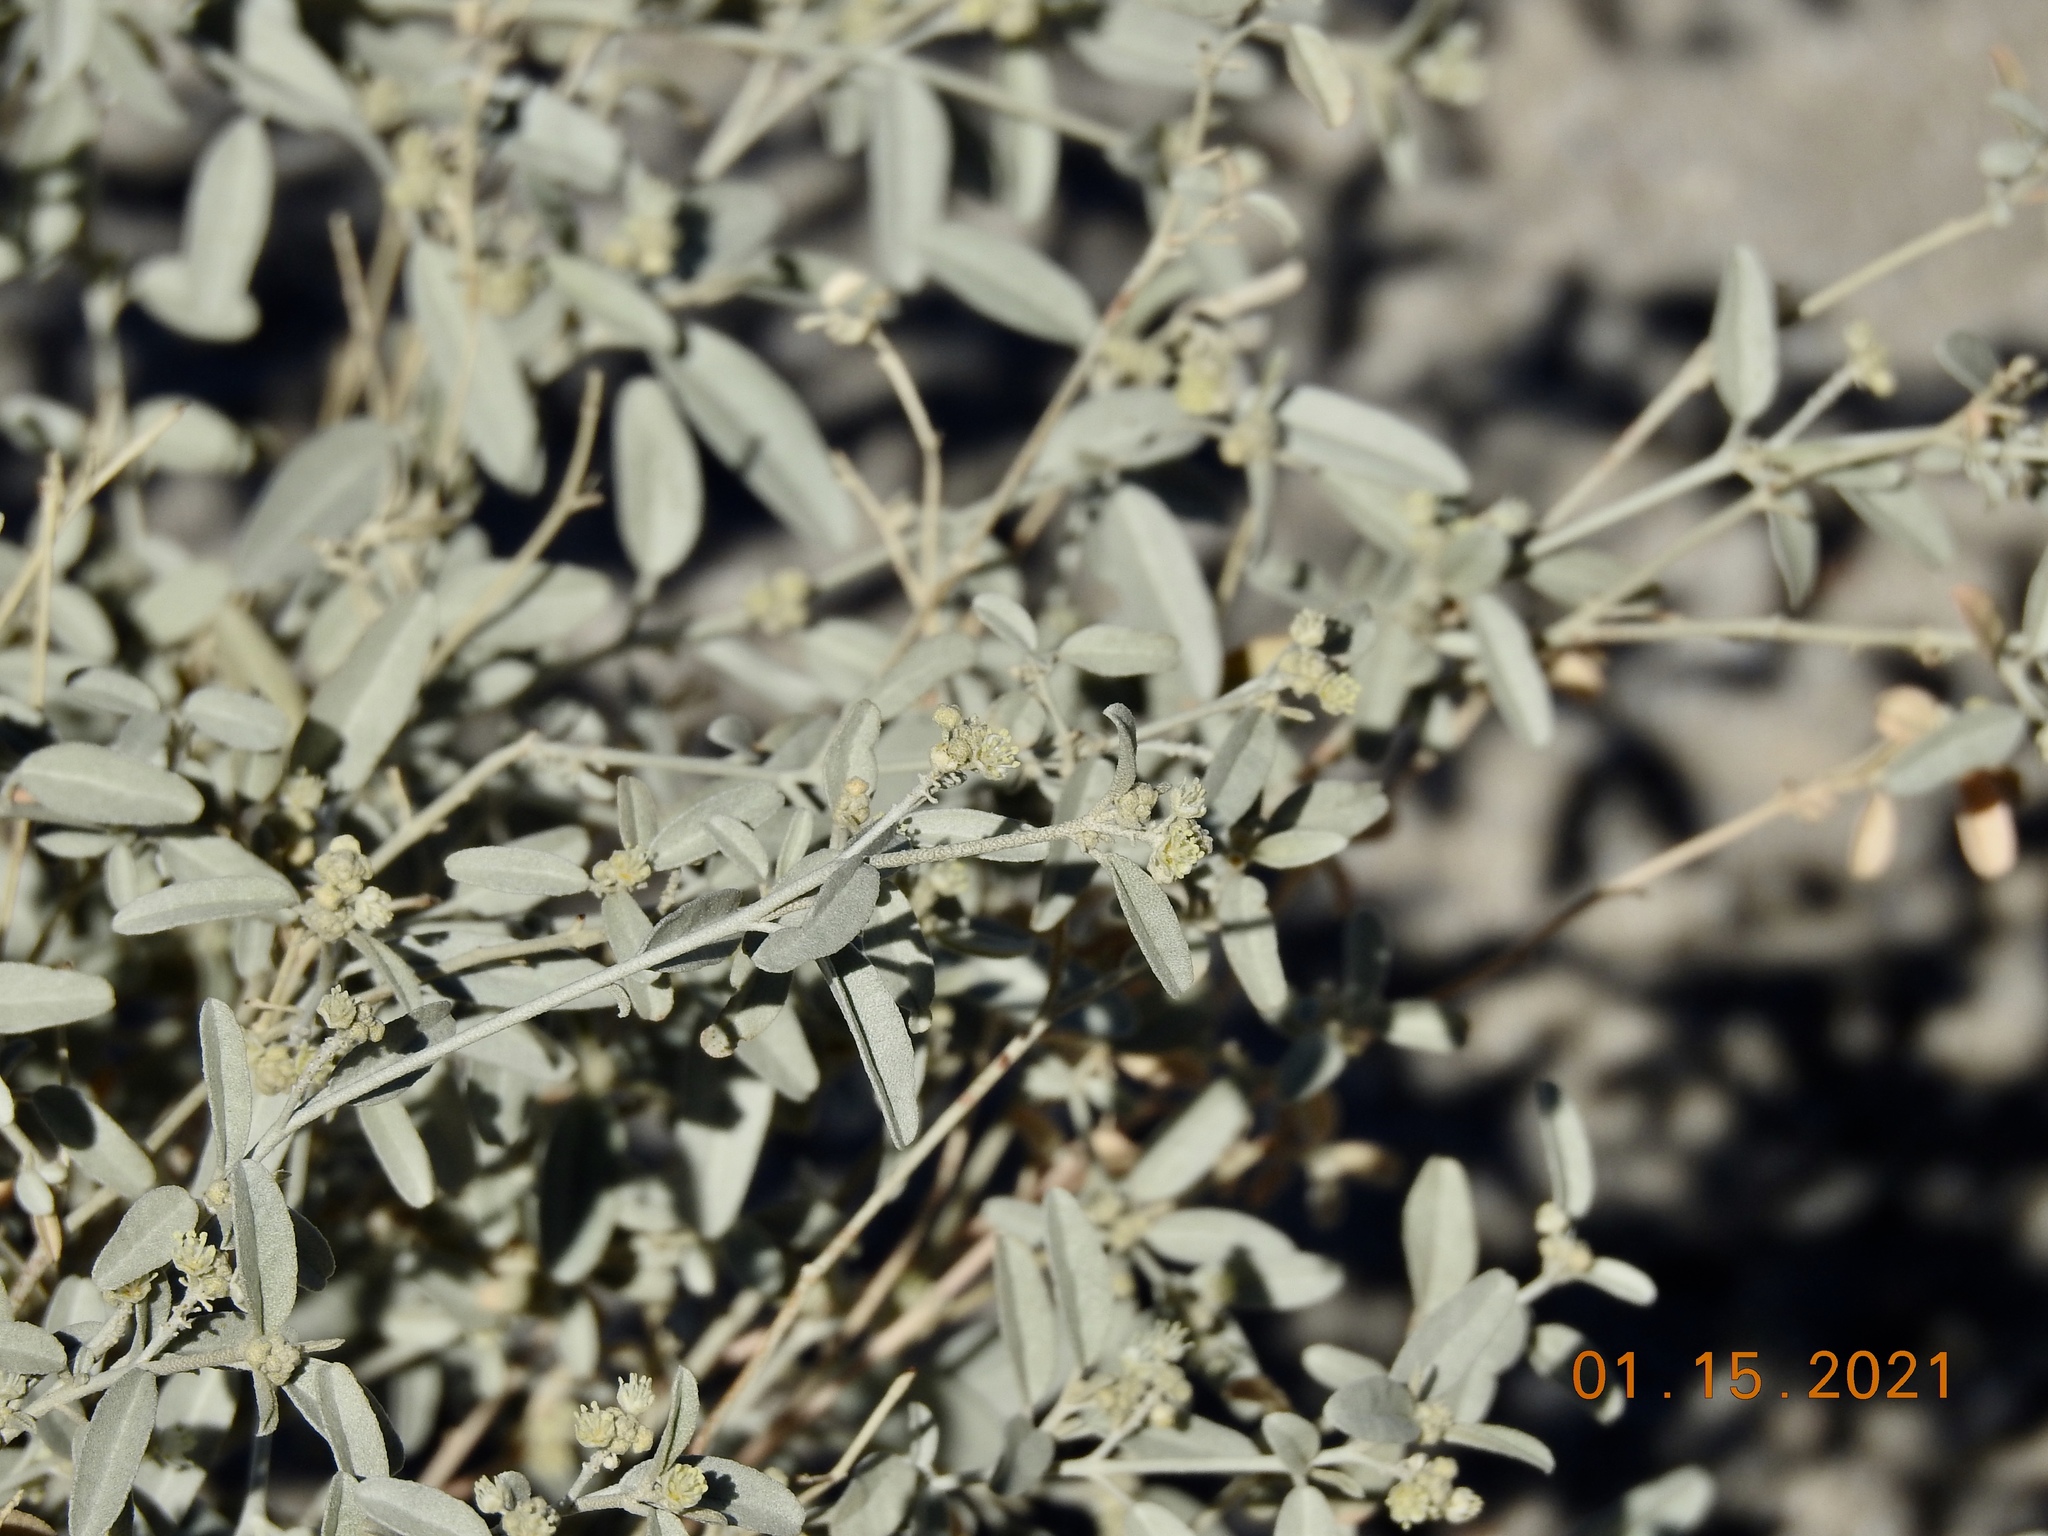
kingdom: Plantae
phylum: Tracheophyta
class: Magnoliopsida
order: Malpighiales
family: Euphorbiaceae
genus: Croton
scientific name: Croton californicus
